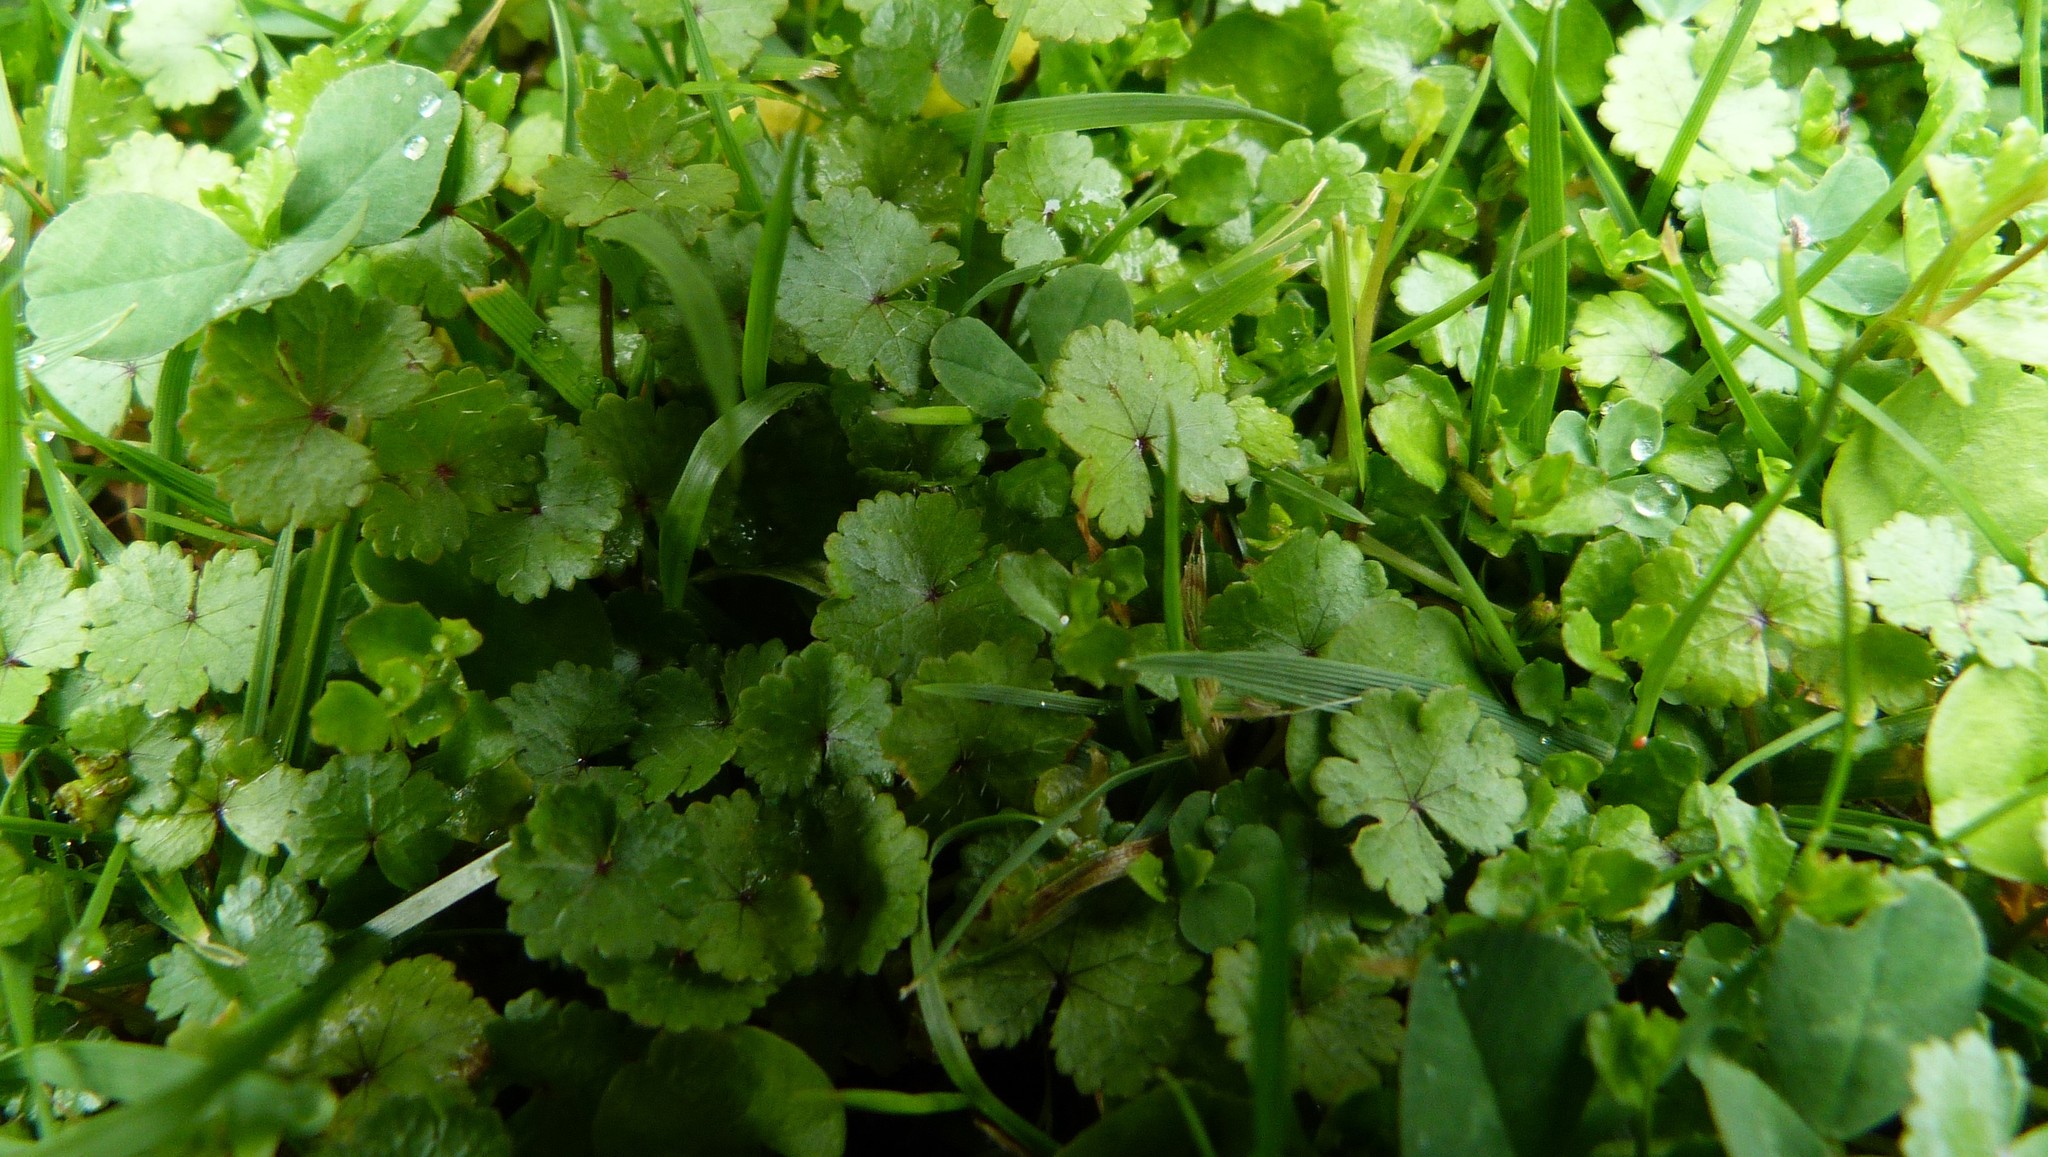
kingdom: Plantae
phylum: Tracheophyta
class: Magnoliopsida
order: Apiales
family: Araliaceae
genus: Hydrocotyle
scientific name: Hydrocotyle microphylla
